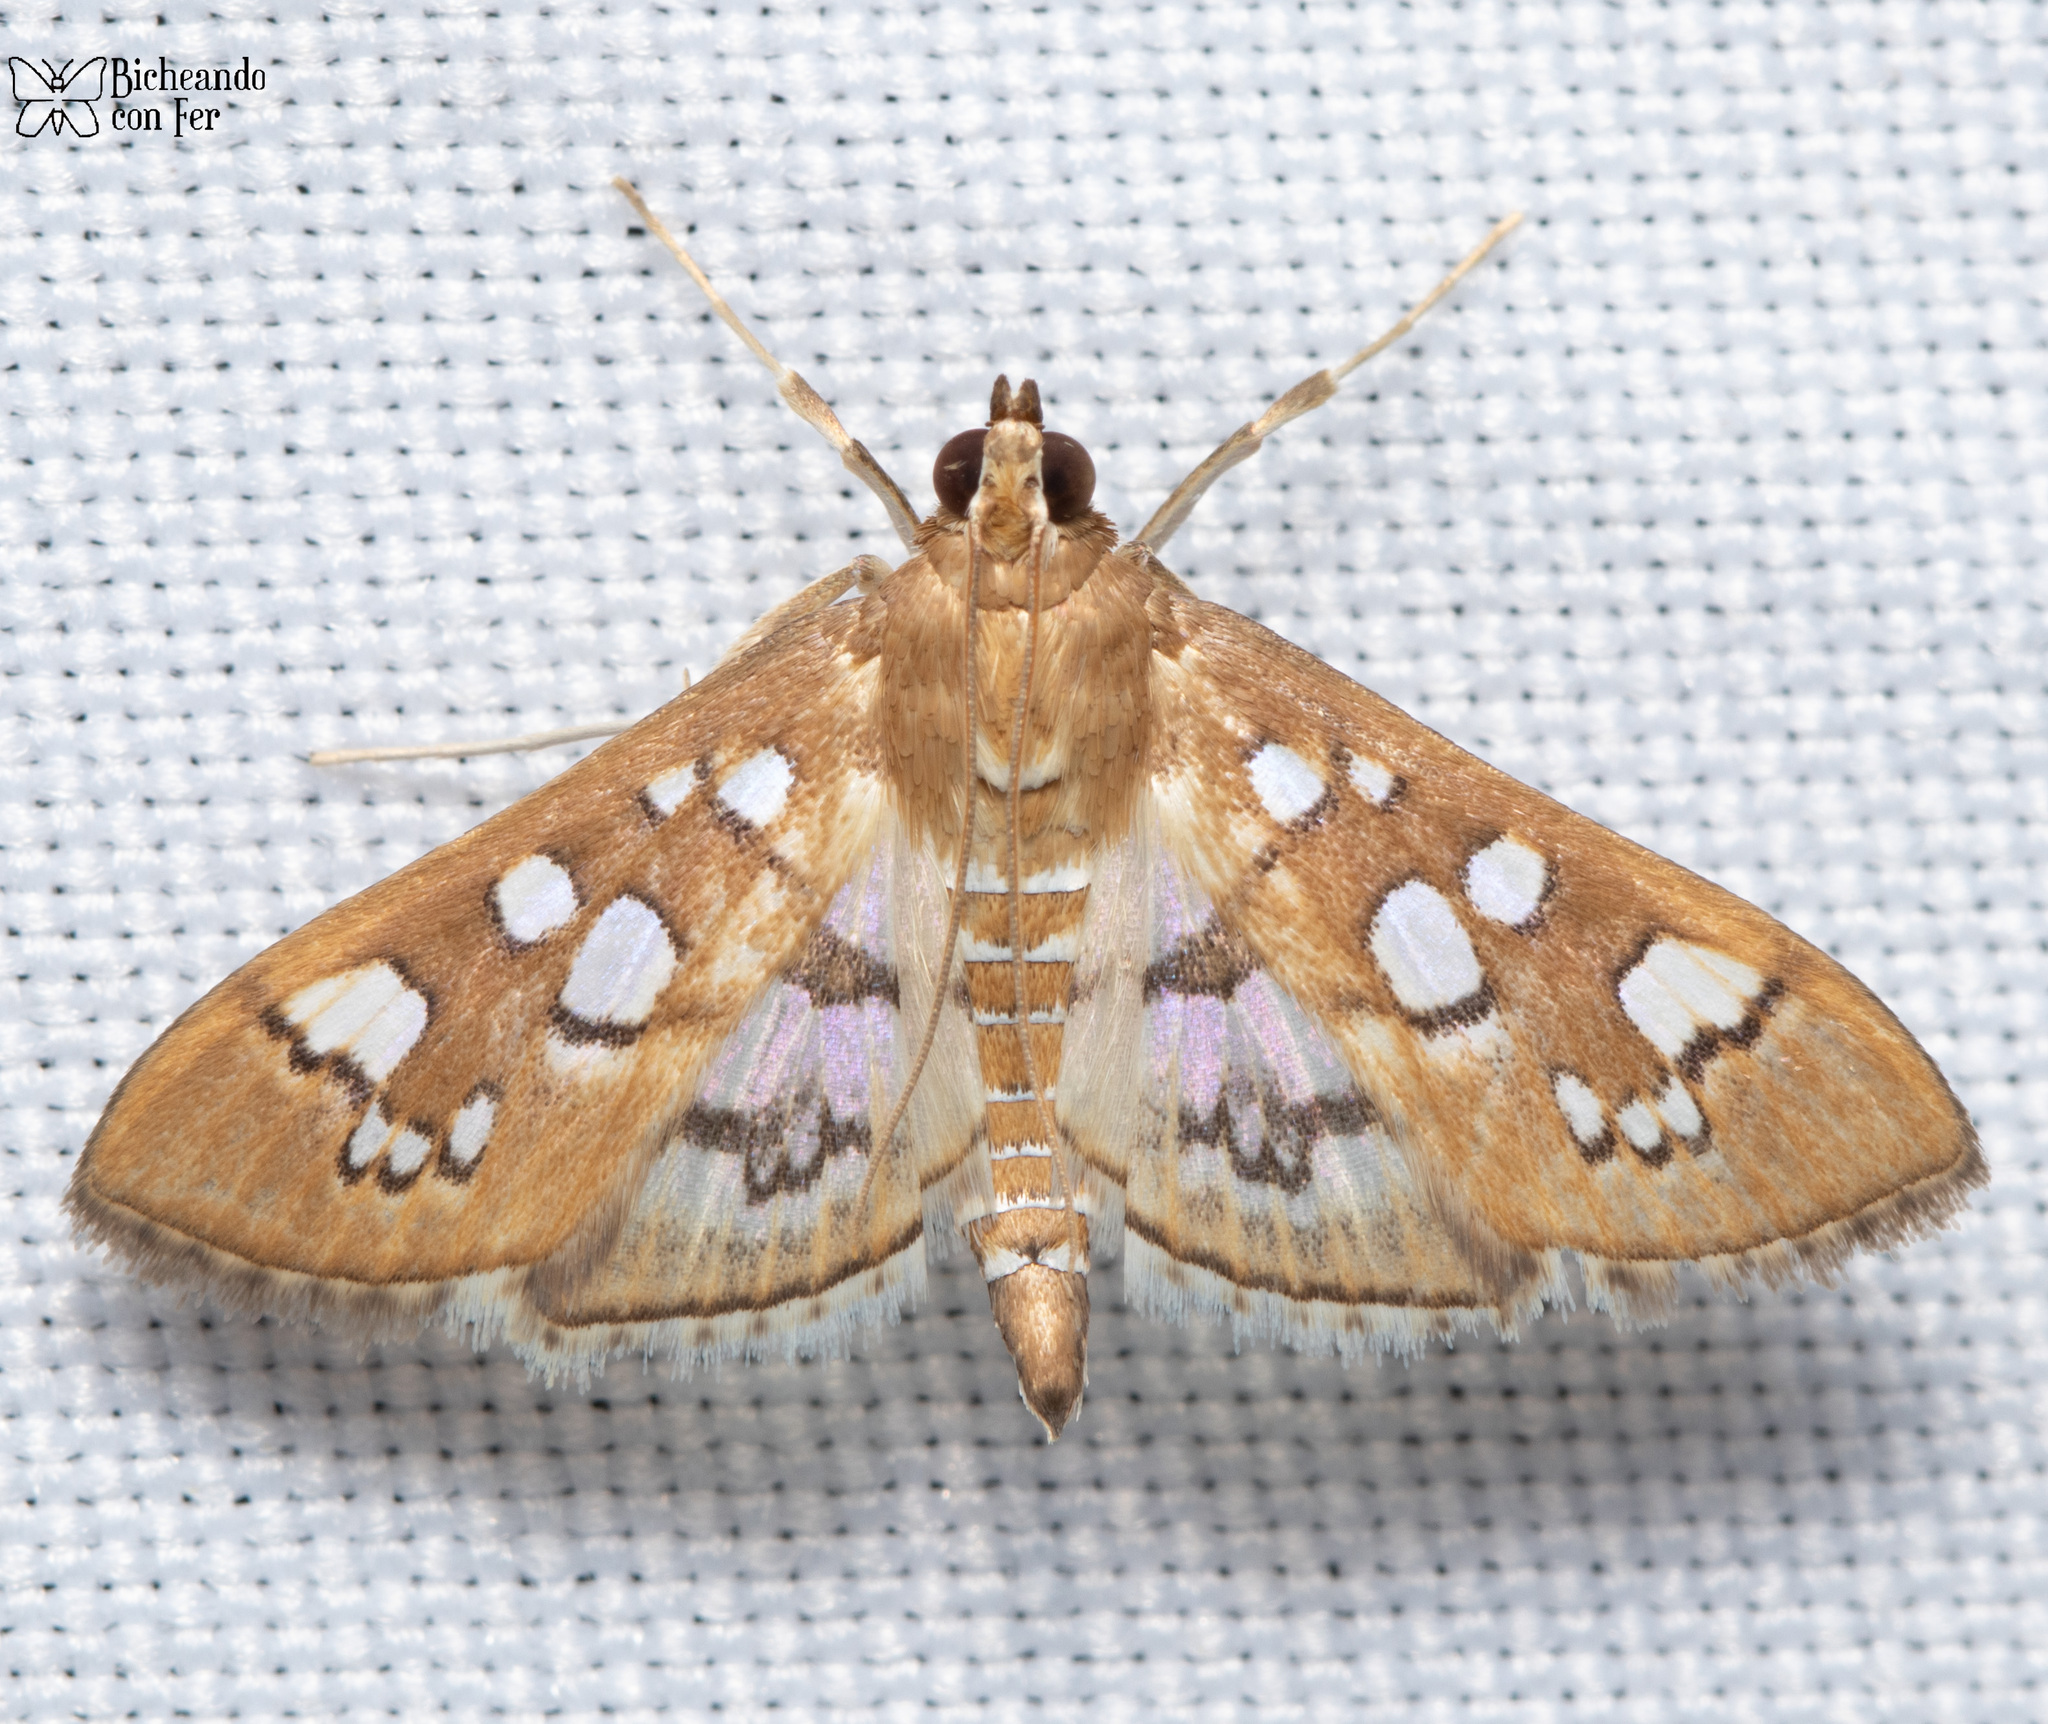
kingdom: Animalia
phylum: Arthropoda
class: Insecta
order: Lepidoptera
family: Crambidae
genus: Samea
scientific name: Samea baccatalis
